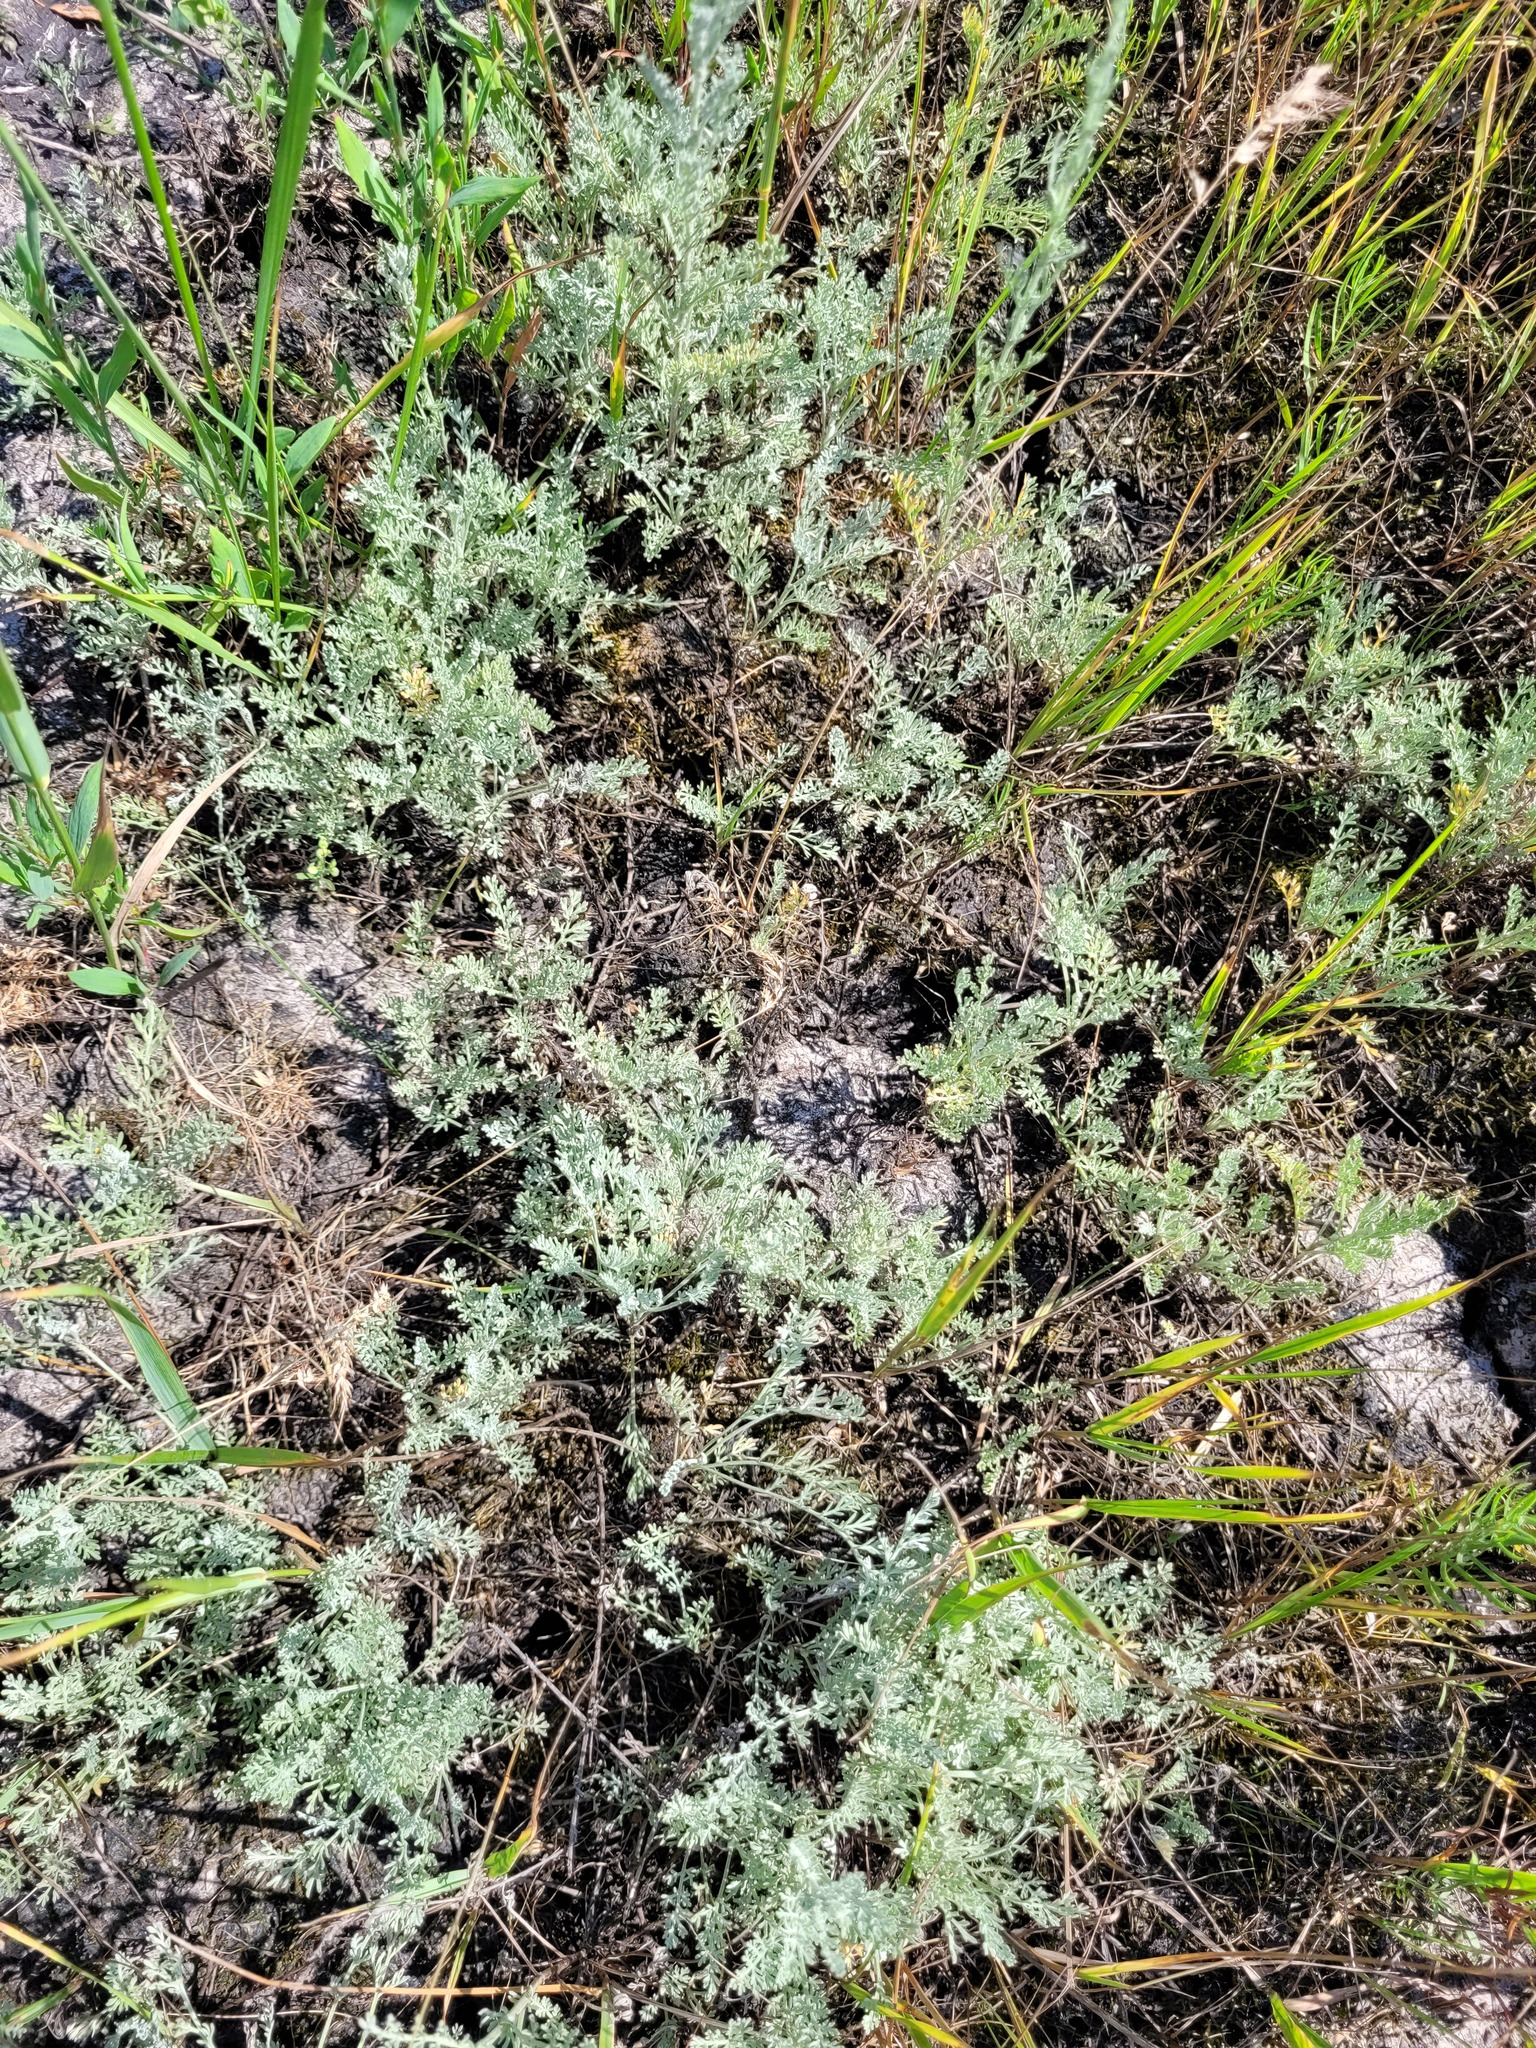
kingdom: Plantae
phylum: Tracheophyta
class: Magnoliopsida
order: Asterales
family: Asteraceae
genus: Artemisia
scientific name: Artemisia lercheana
